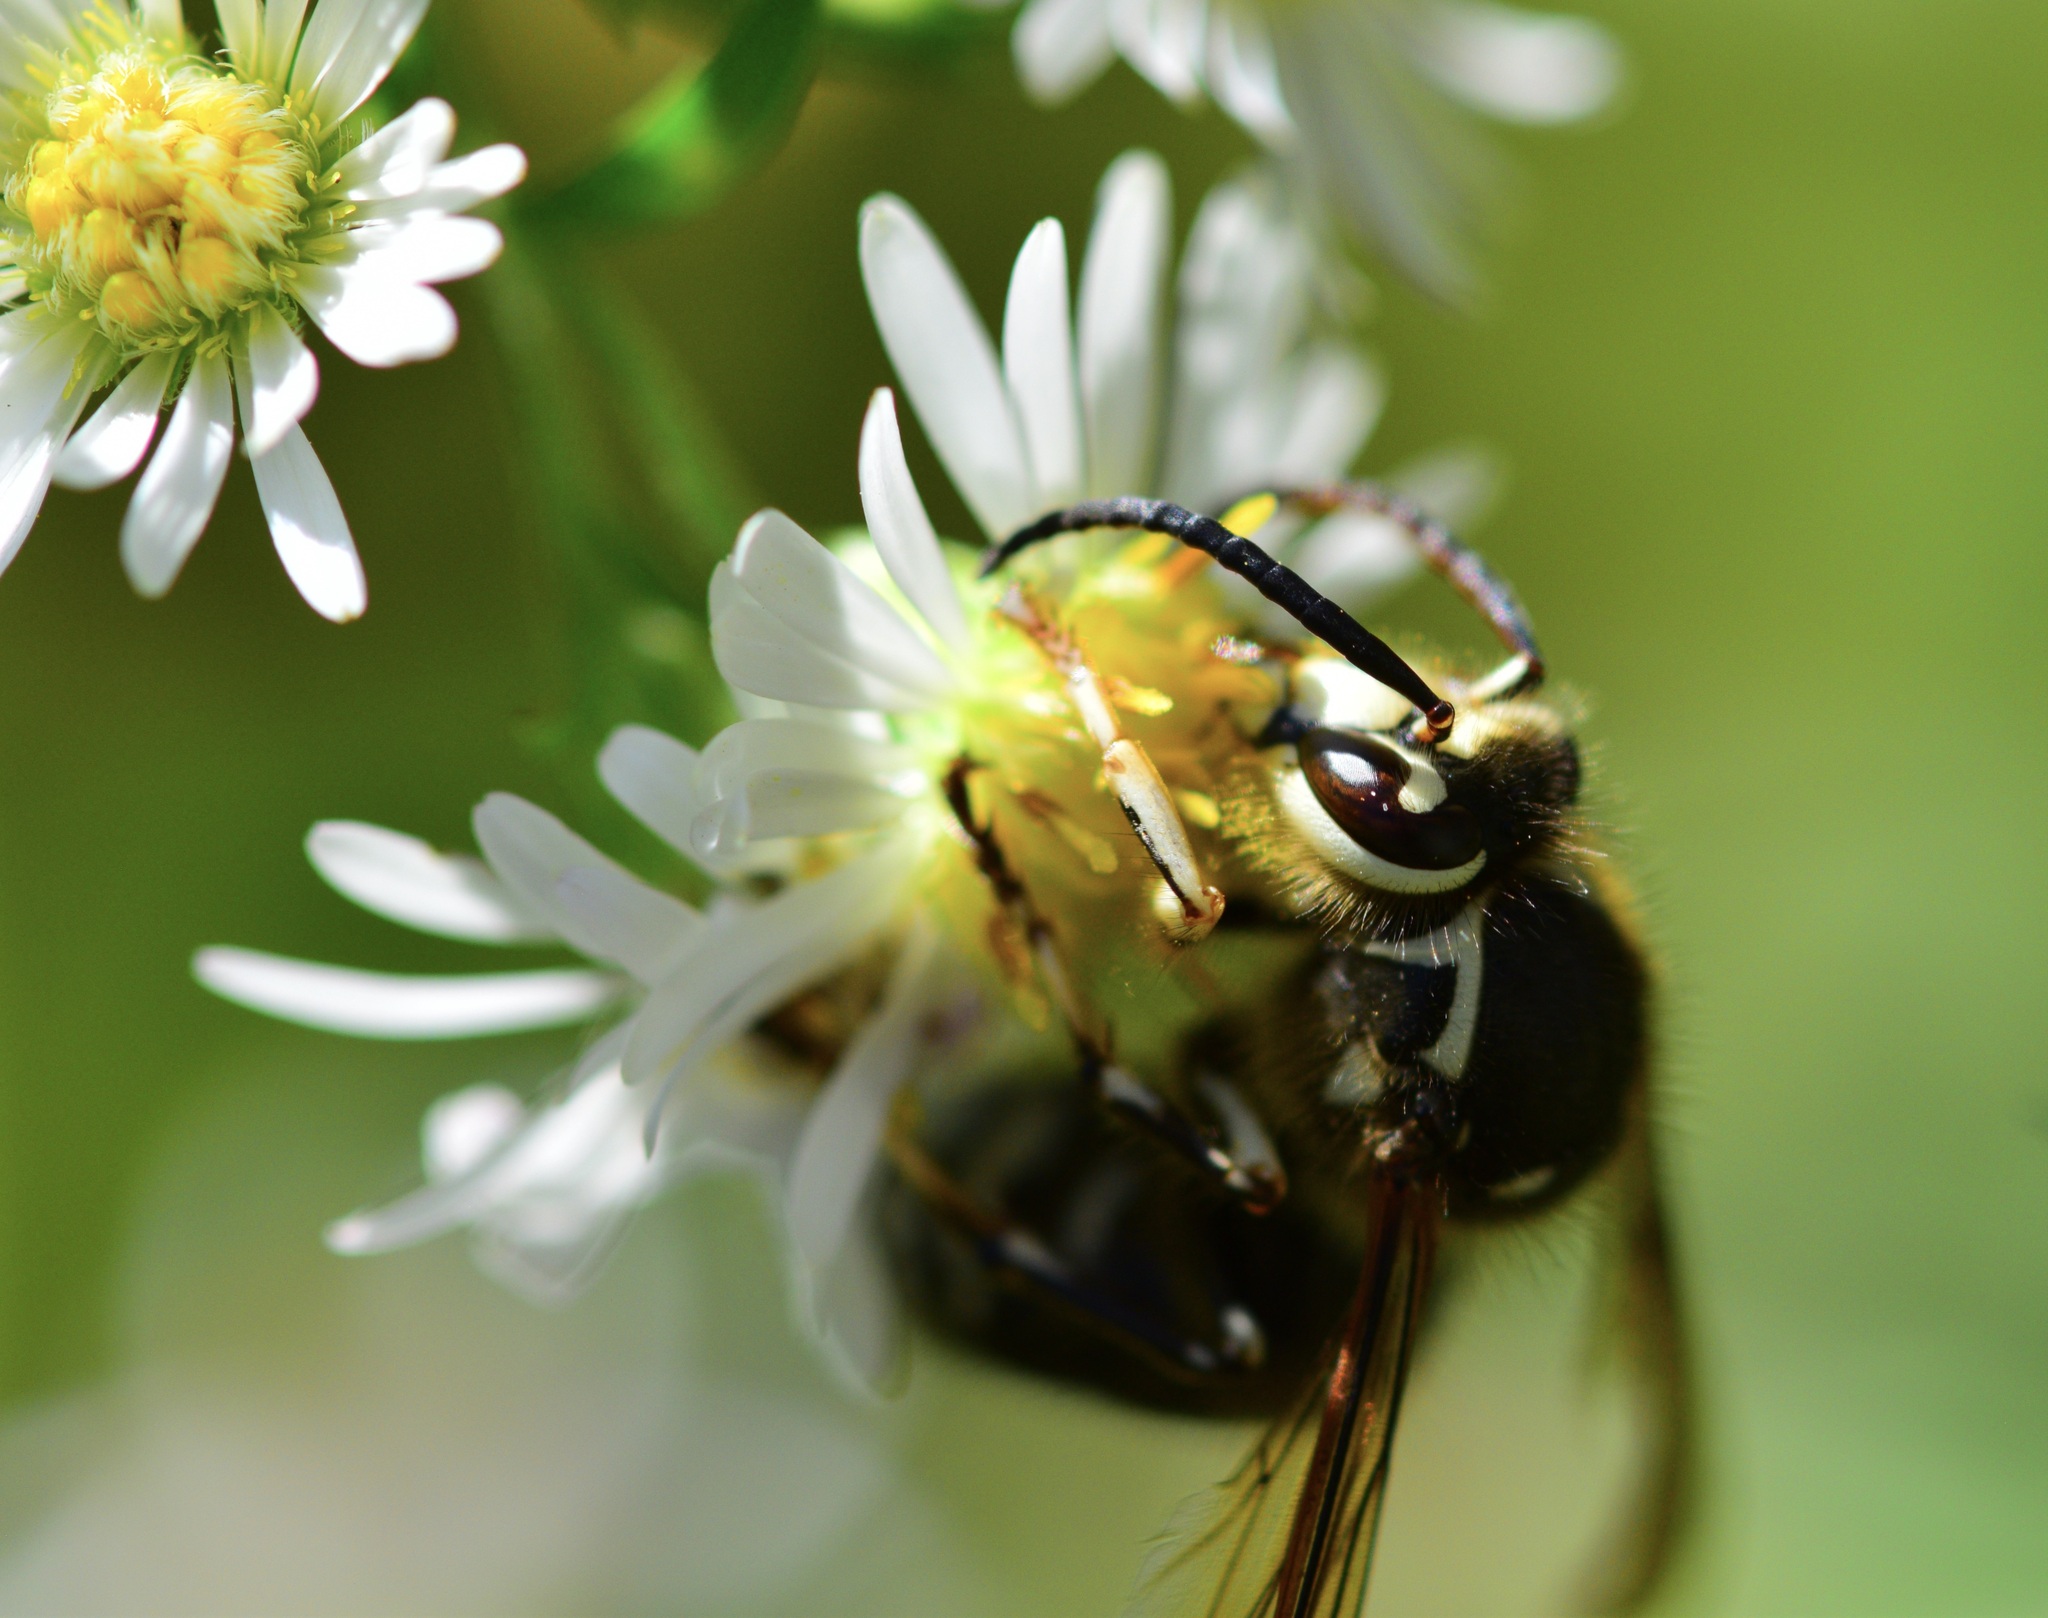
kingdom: Animalia
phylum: Arthropoda
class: Insecta
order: Hymenoptera
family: Vespidae
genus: Dolichovespula
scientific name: Dolichovespula maculata
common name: Bald-faced hornet
